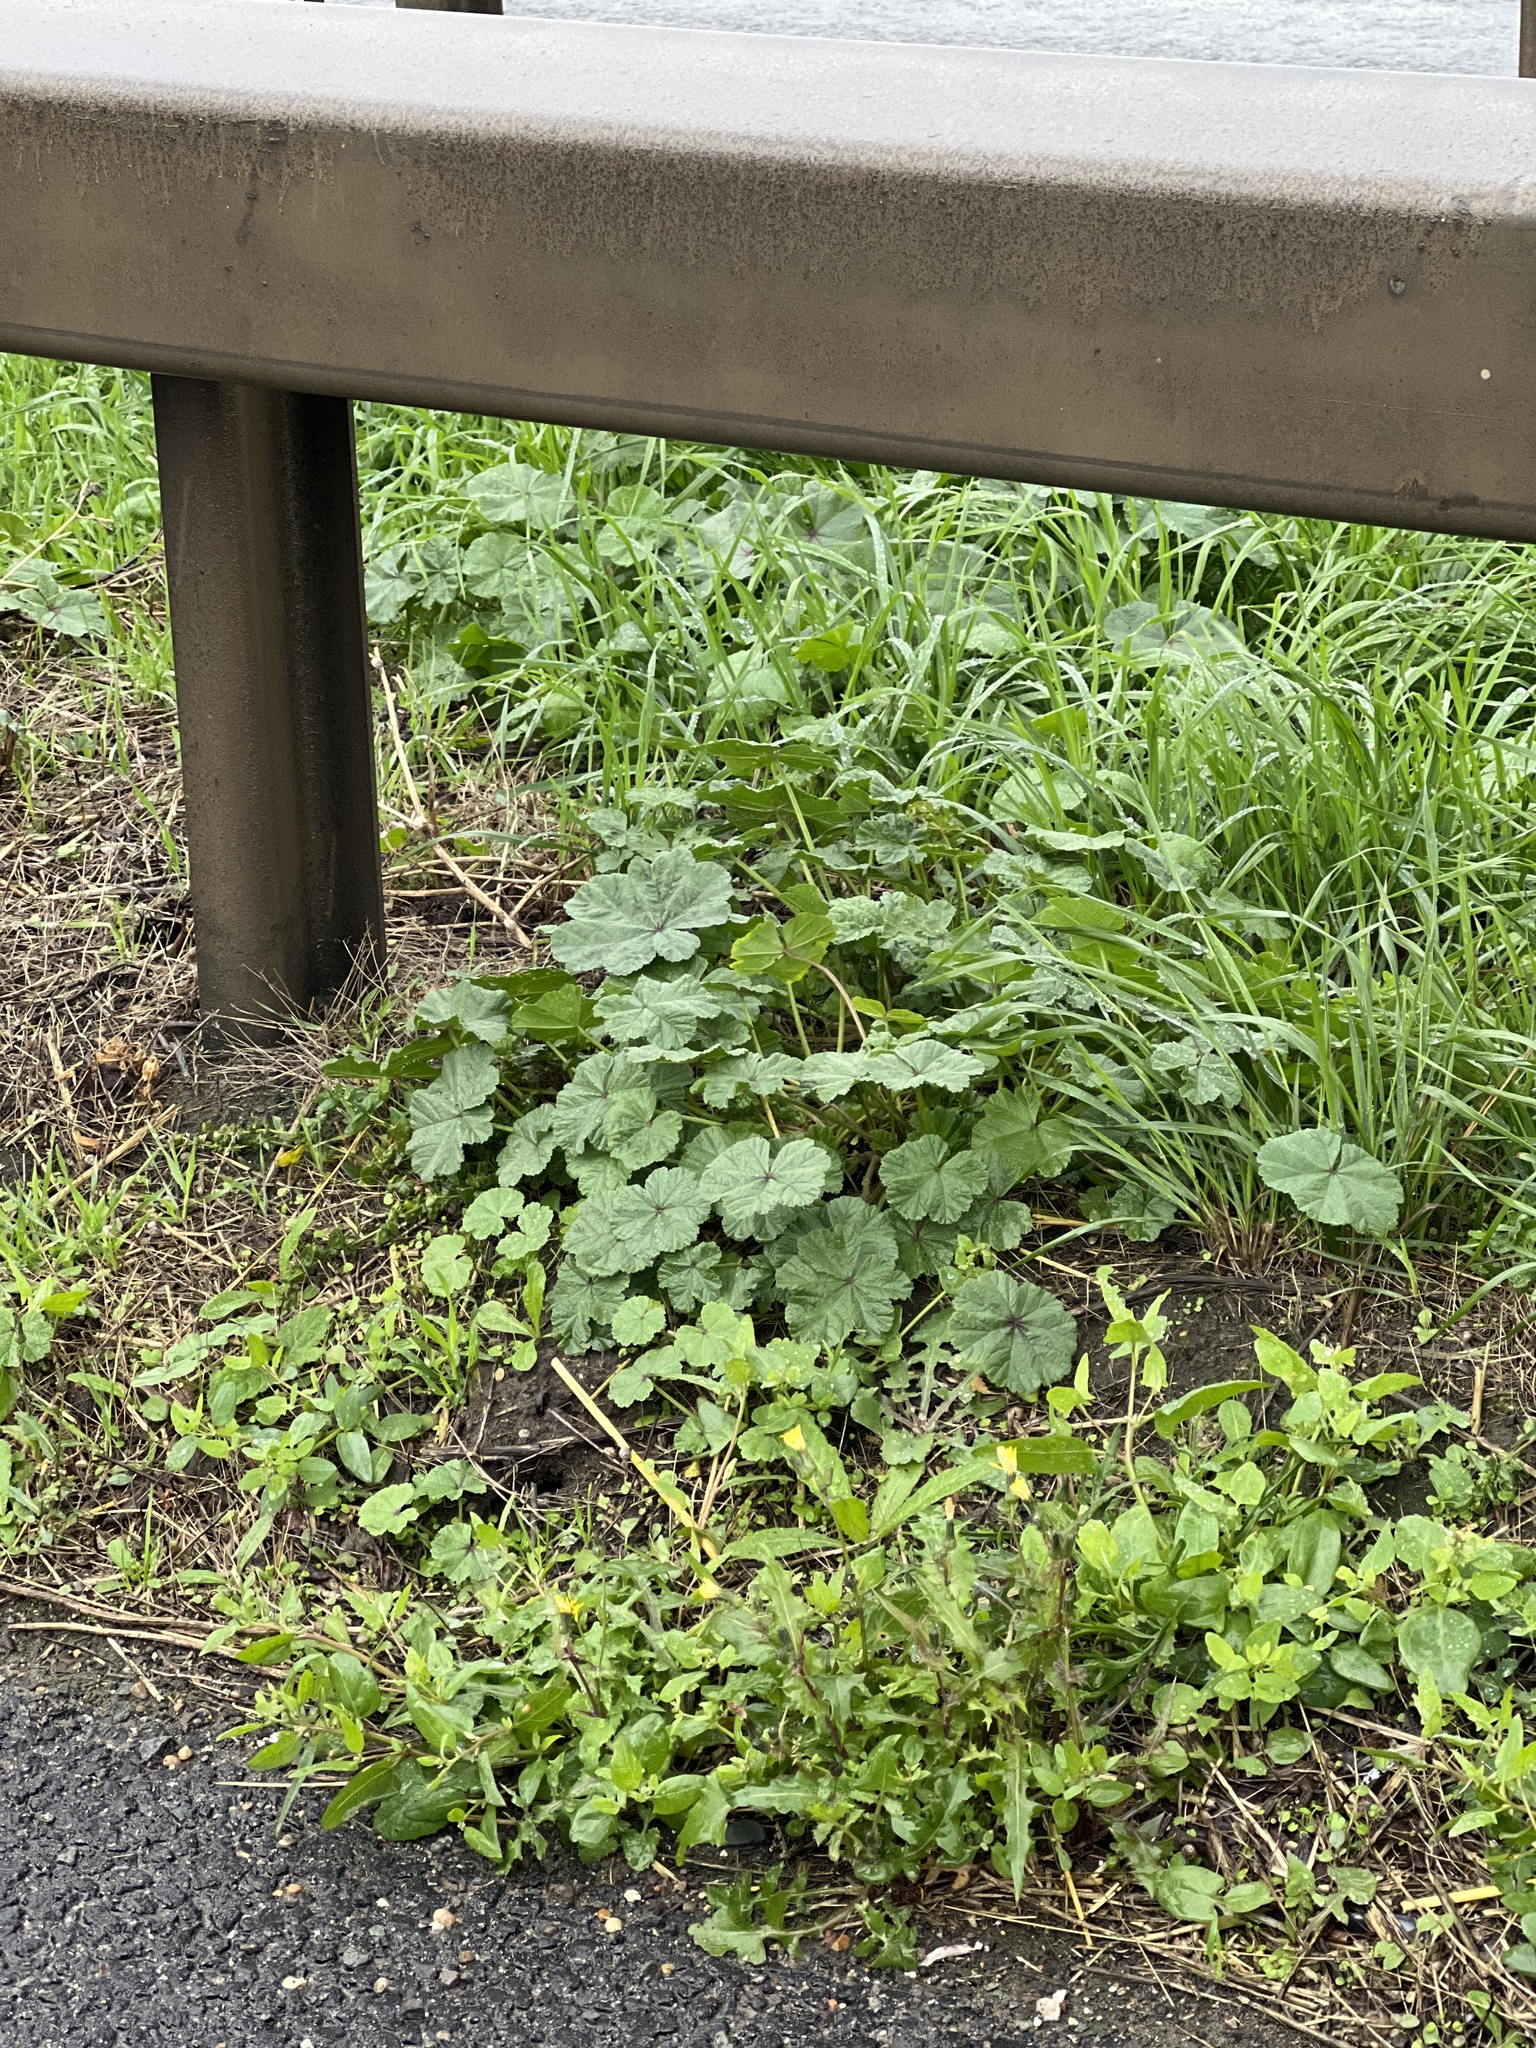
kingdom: Plantae
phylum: Tracheophyta
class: Magnoliopsida
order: Malvales
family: Malvaceae
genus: Malva
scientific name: Malva sylvestris
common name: Common mallow
